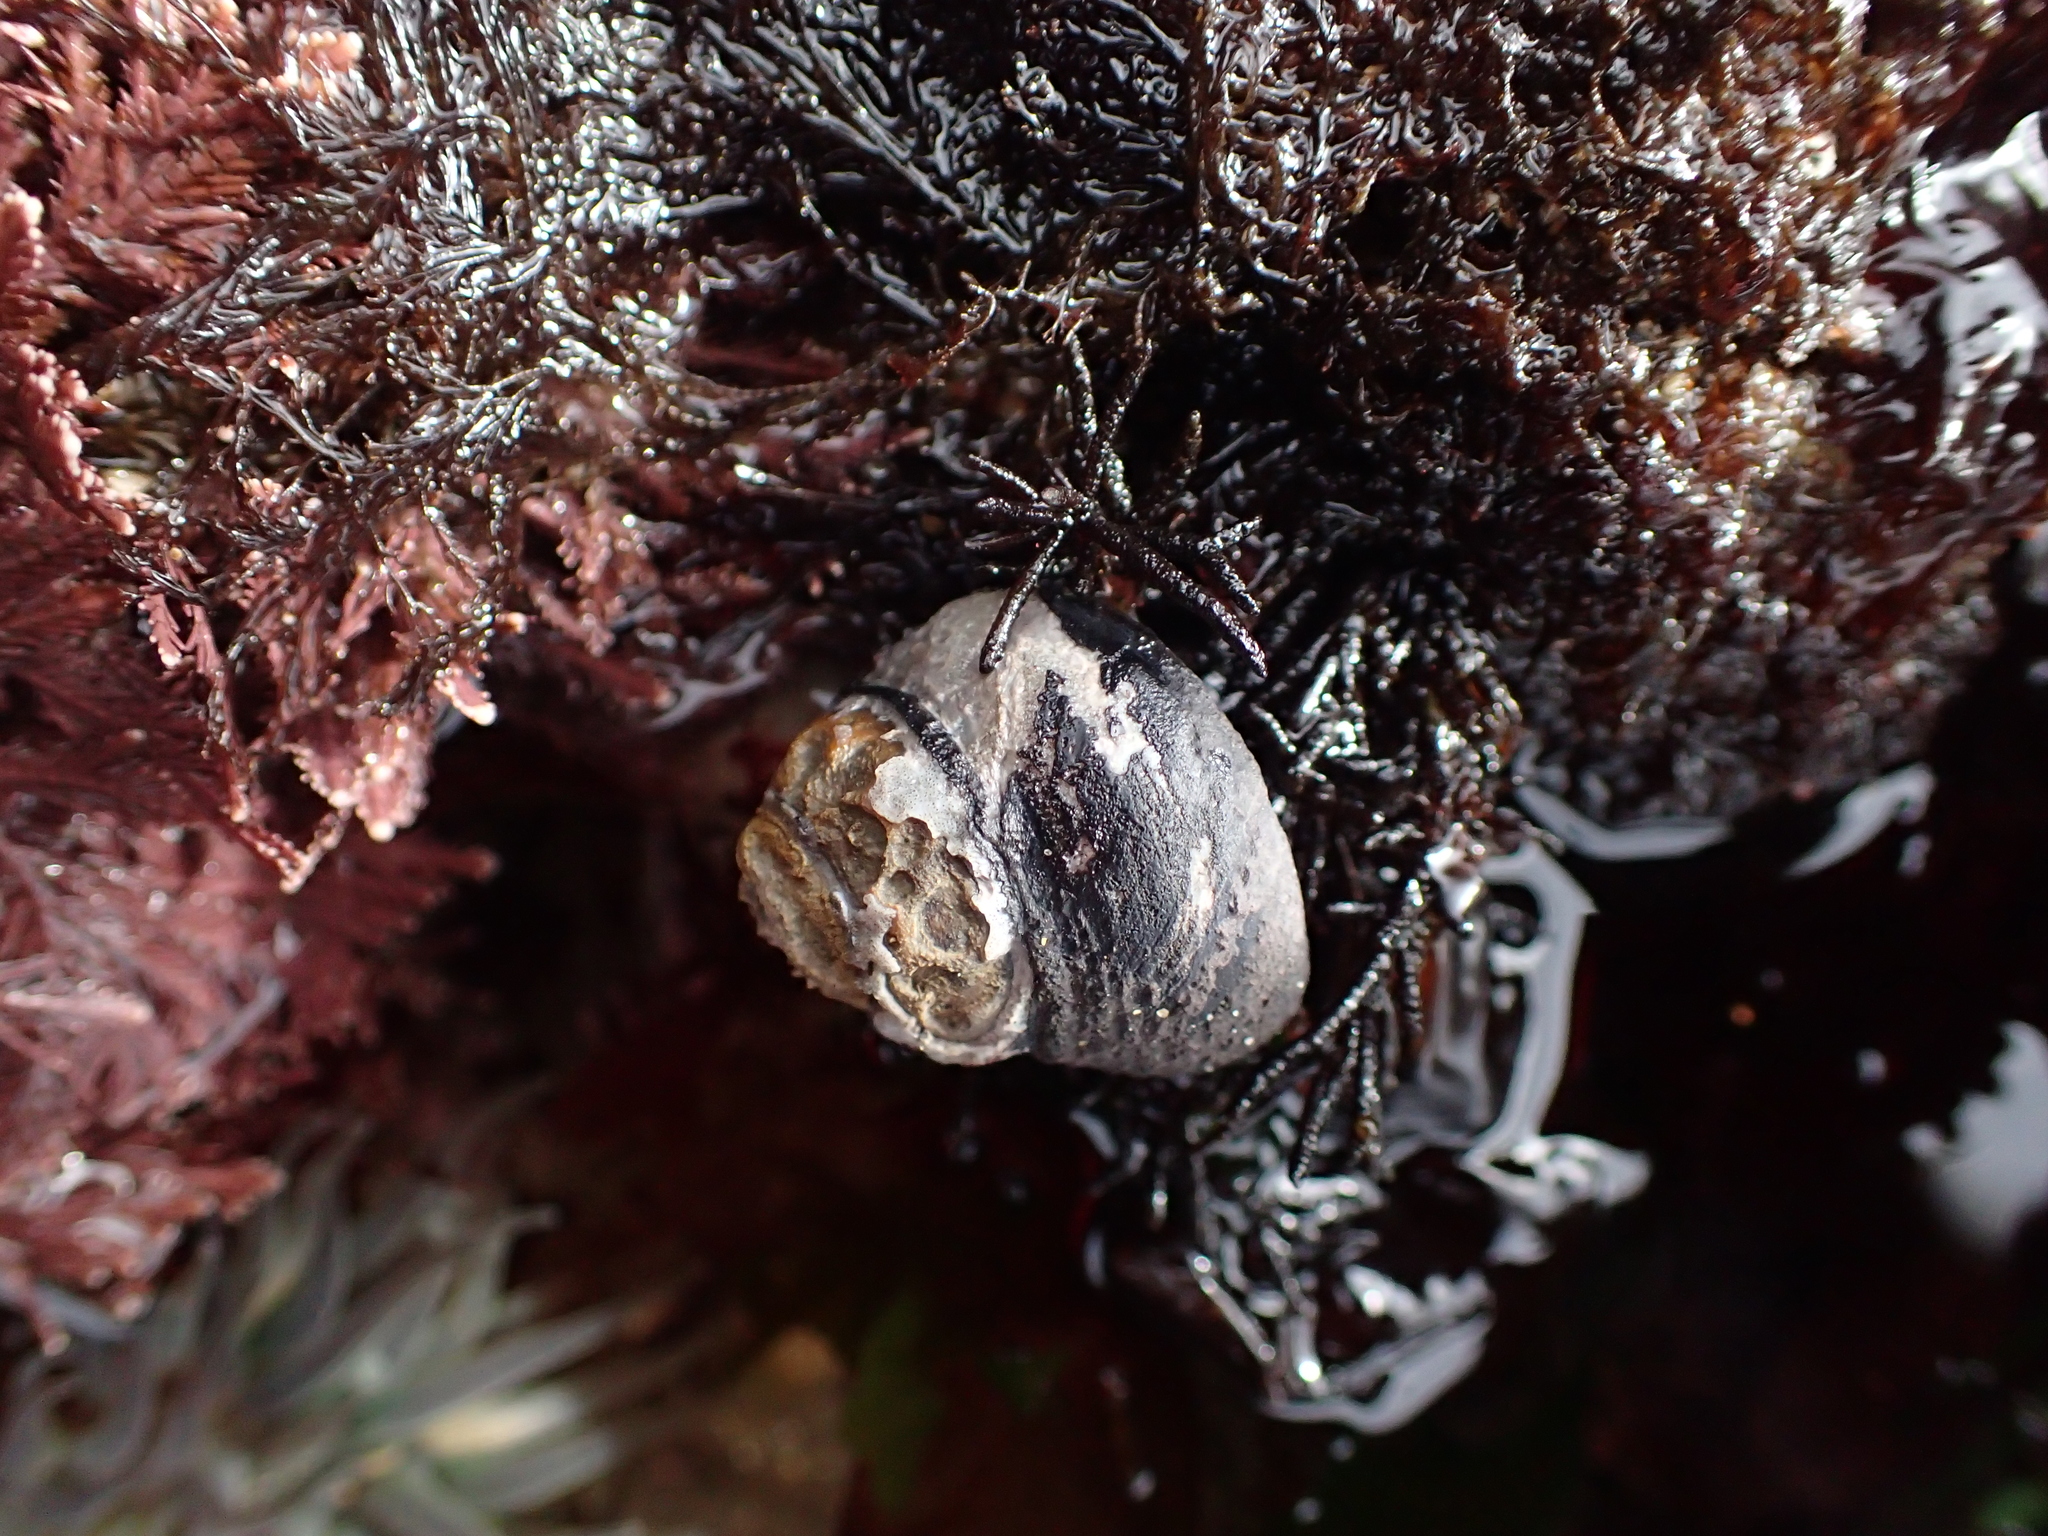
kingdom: Animalia
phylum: Mollusca
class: Gastropoda
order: Trochida
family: Tegulidae
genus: Tegula
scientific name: Tegula funebralis
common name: Black tegula
